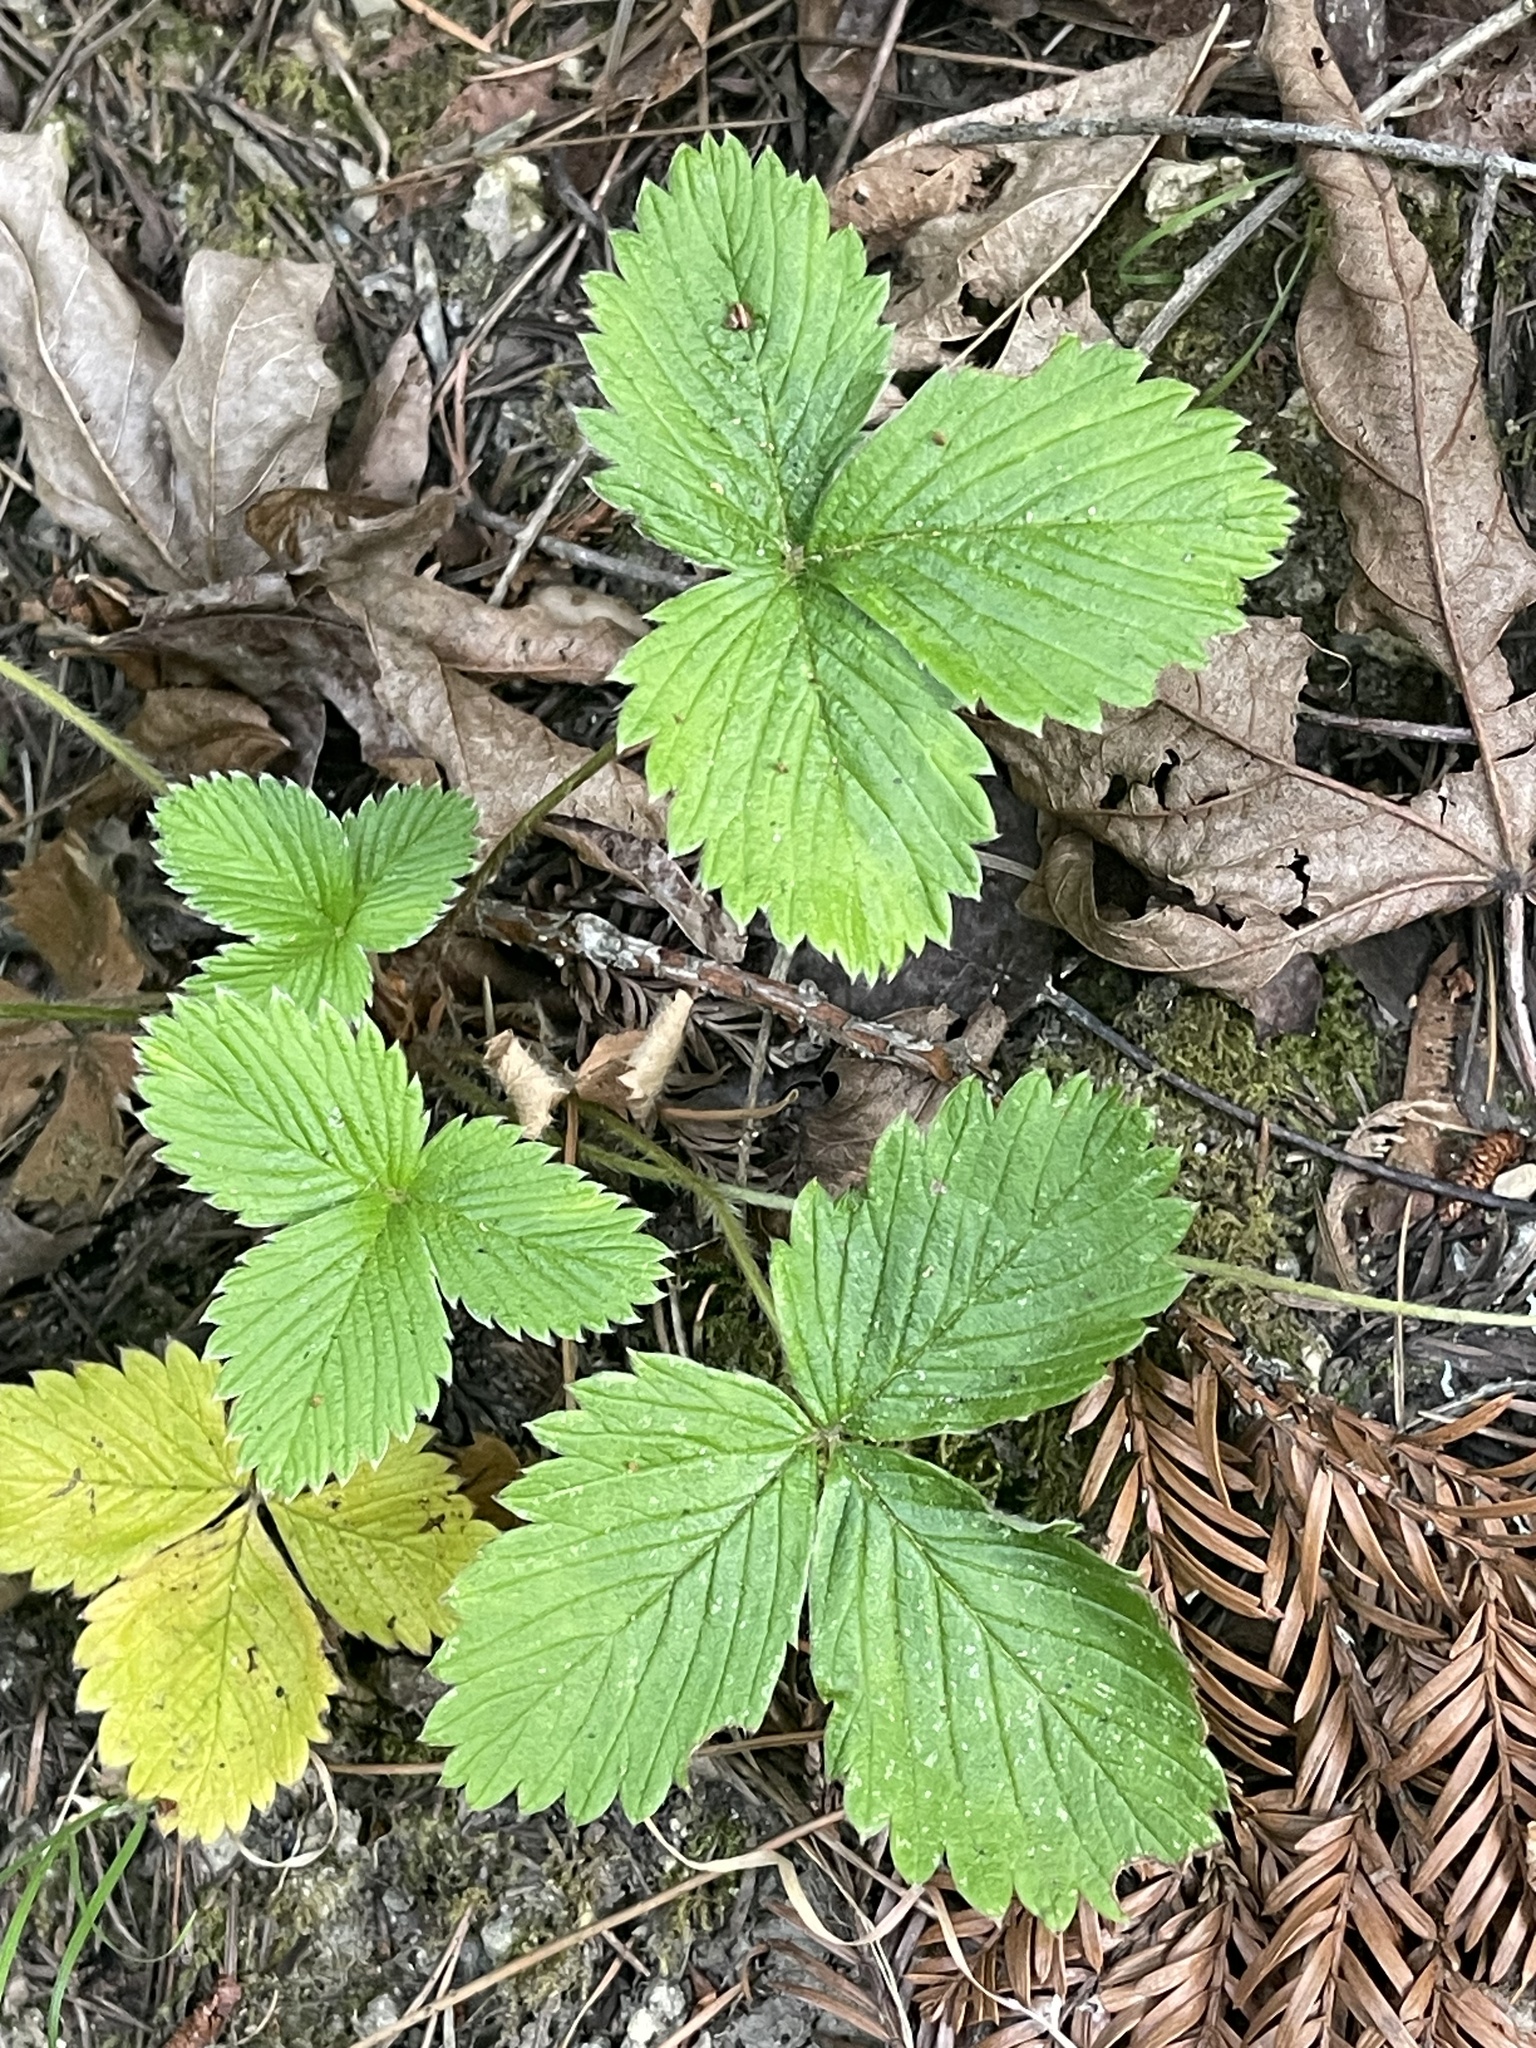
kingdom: Plantae
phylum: Tracheophyta
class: Magnoliopsida
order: Rosales
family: Rosaceae
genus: Fragaria
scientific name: Fragaria vesca
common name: Wild strawberry
